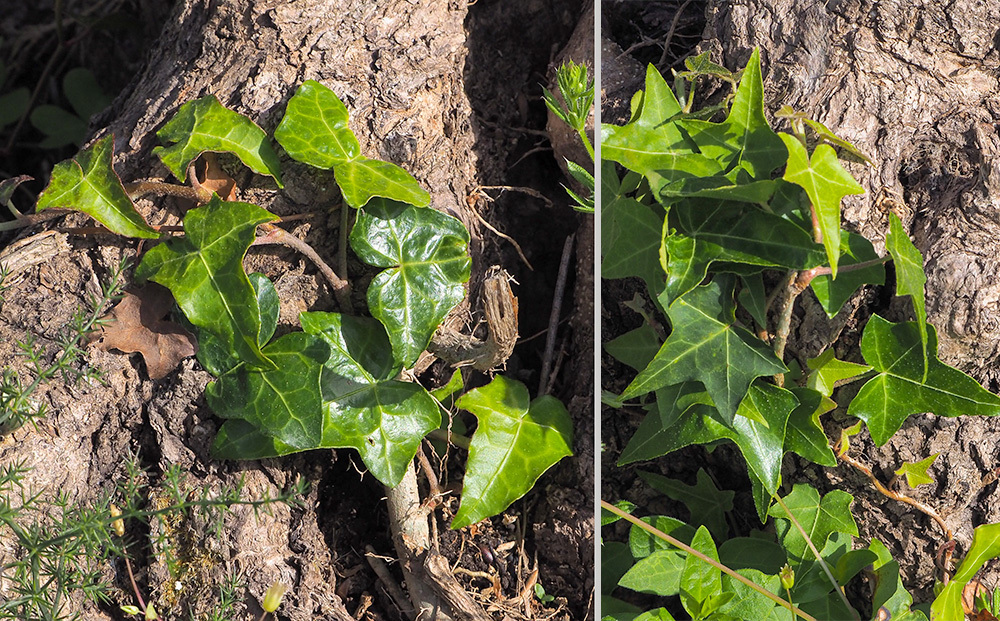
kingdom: Plantae
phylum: Tracheophyta
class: Magnoliopsida
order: Apiales
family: Araliaceae
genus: Hedera
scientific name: Hedera helix
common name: Ivy
